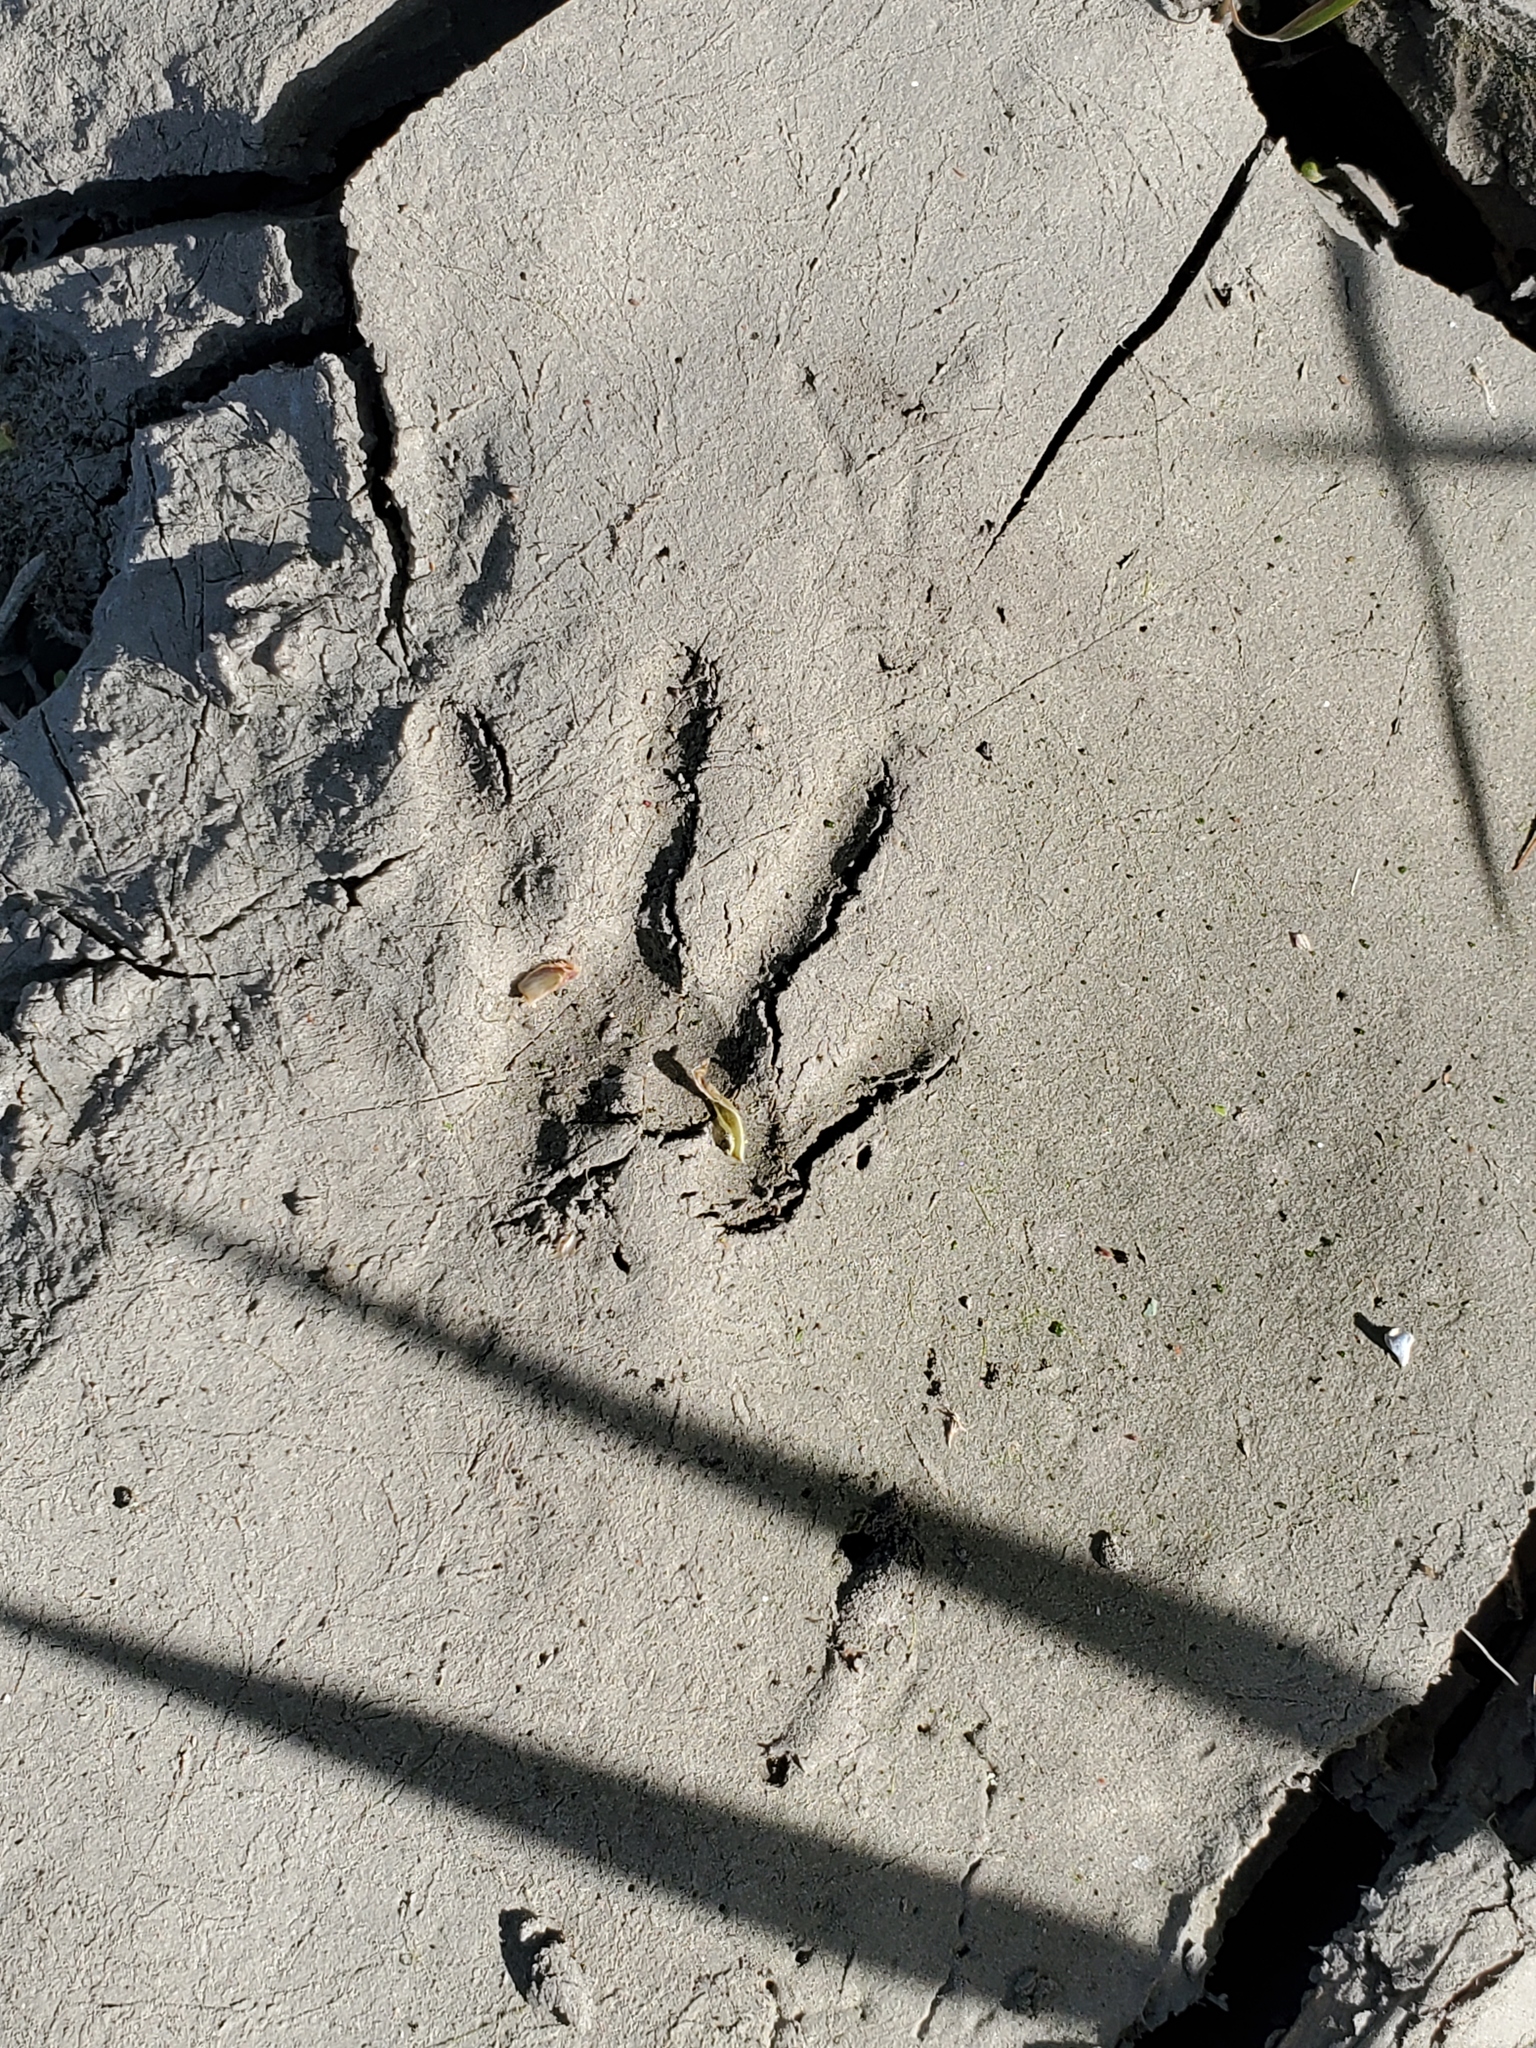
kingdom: Animalia
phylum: Chordata
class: Mammalia
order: Carnivora
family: Procyonidae
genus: Procyon
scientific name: Procyon lotor
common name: Raccoon
